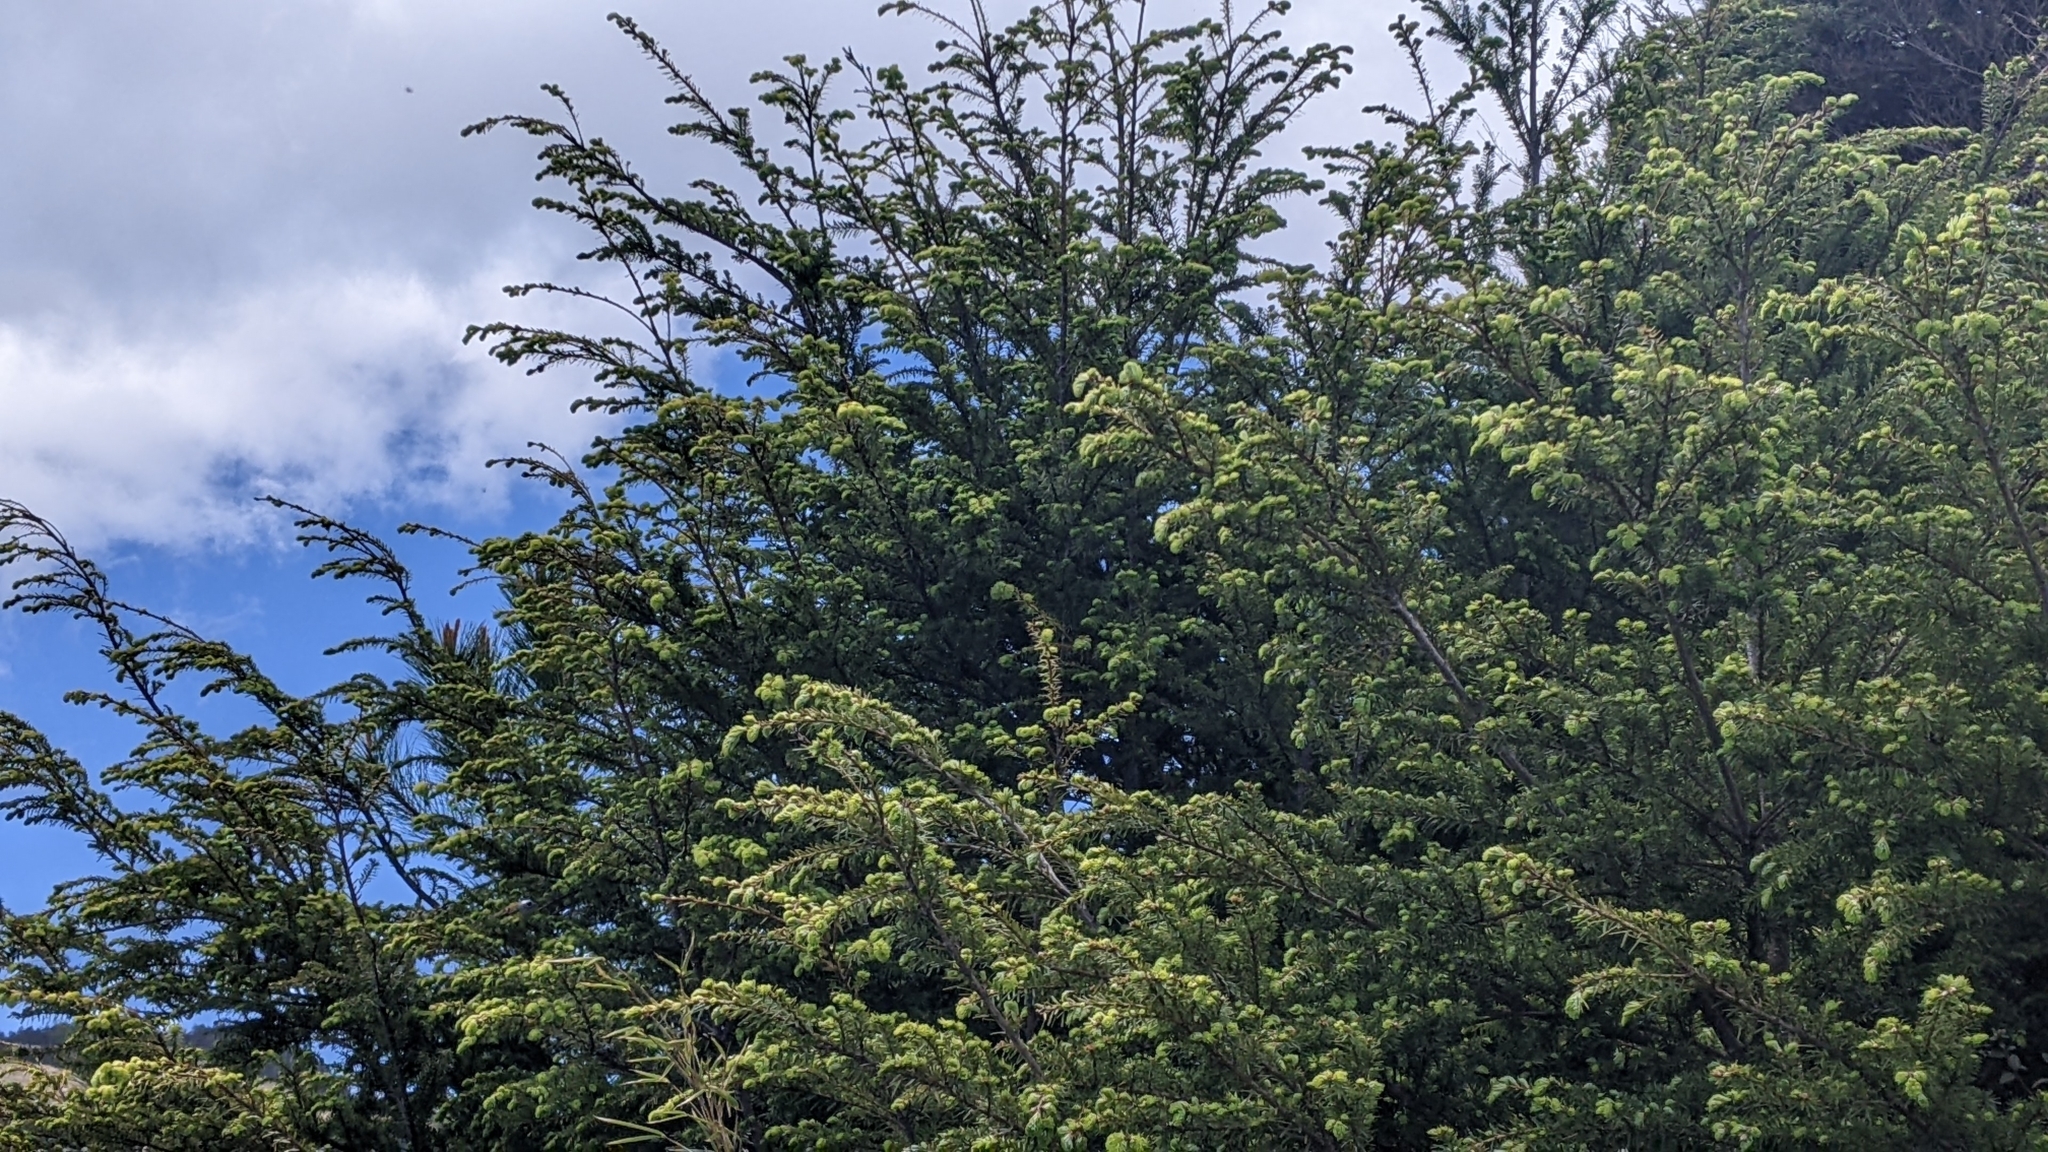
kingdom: Animalia
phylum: Chordata
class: Aves
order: Passeriformes
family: Regulidae
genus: Regulus
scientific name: Regulus goodfellowi
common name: Flamecrest
